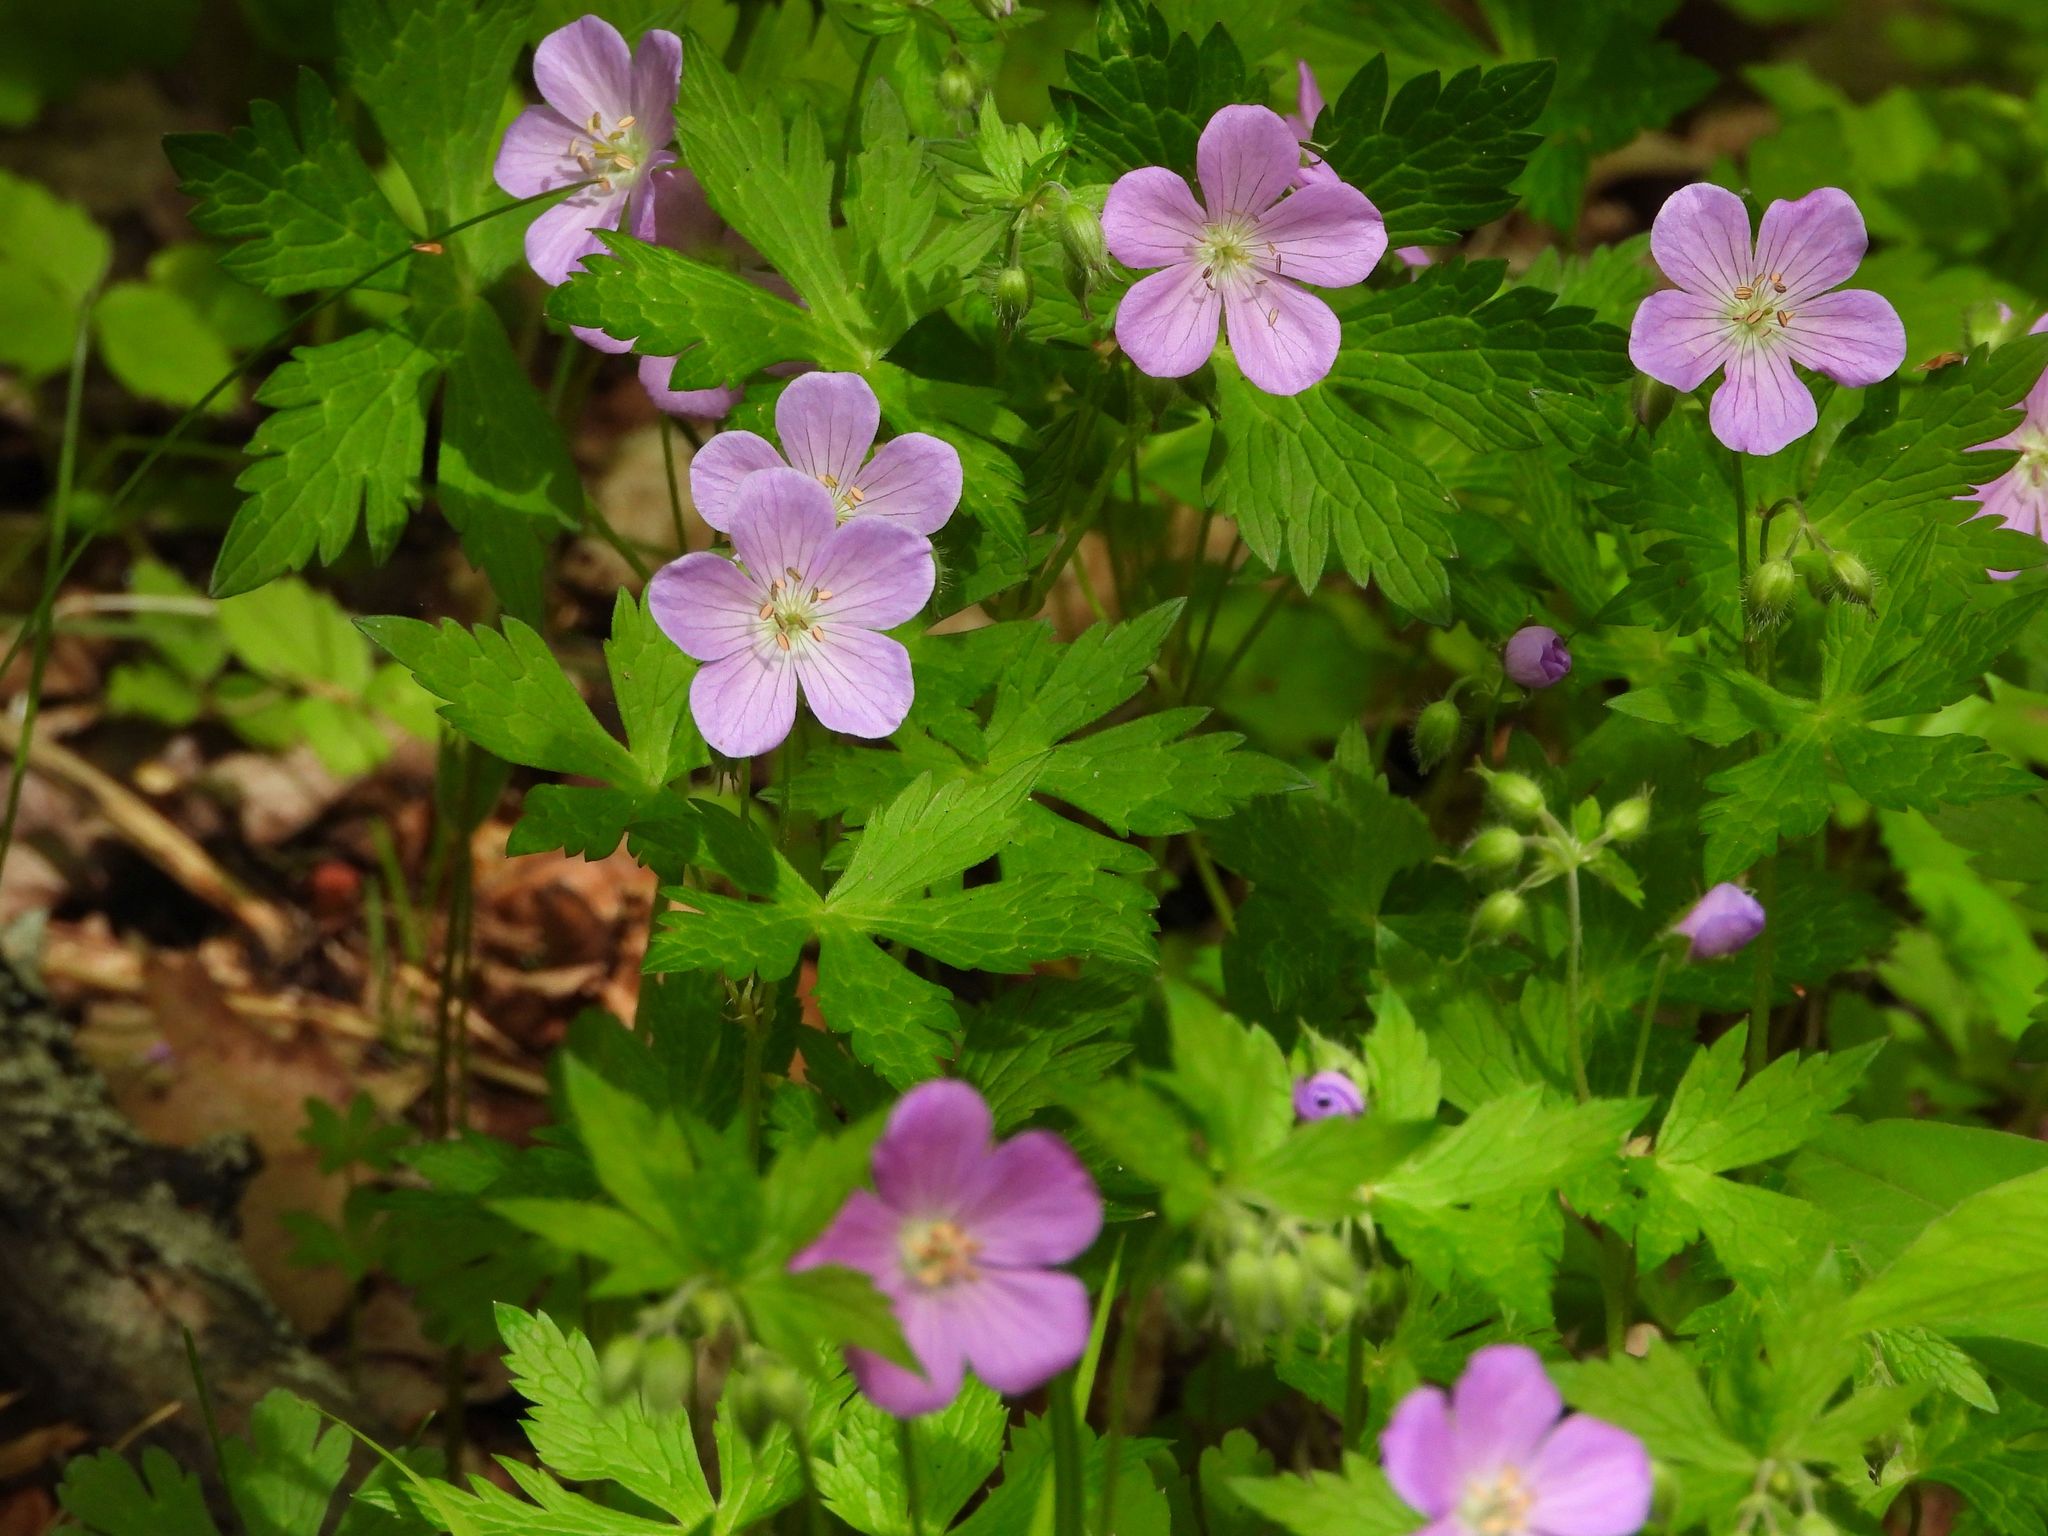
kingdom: Plantae
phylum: Tracheophyta
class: Magnoliopsida
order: Geraniales
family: Geraniaceae
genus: Geranium
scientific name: Geranium maculatum
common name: Spotted geranium
